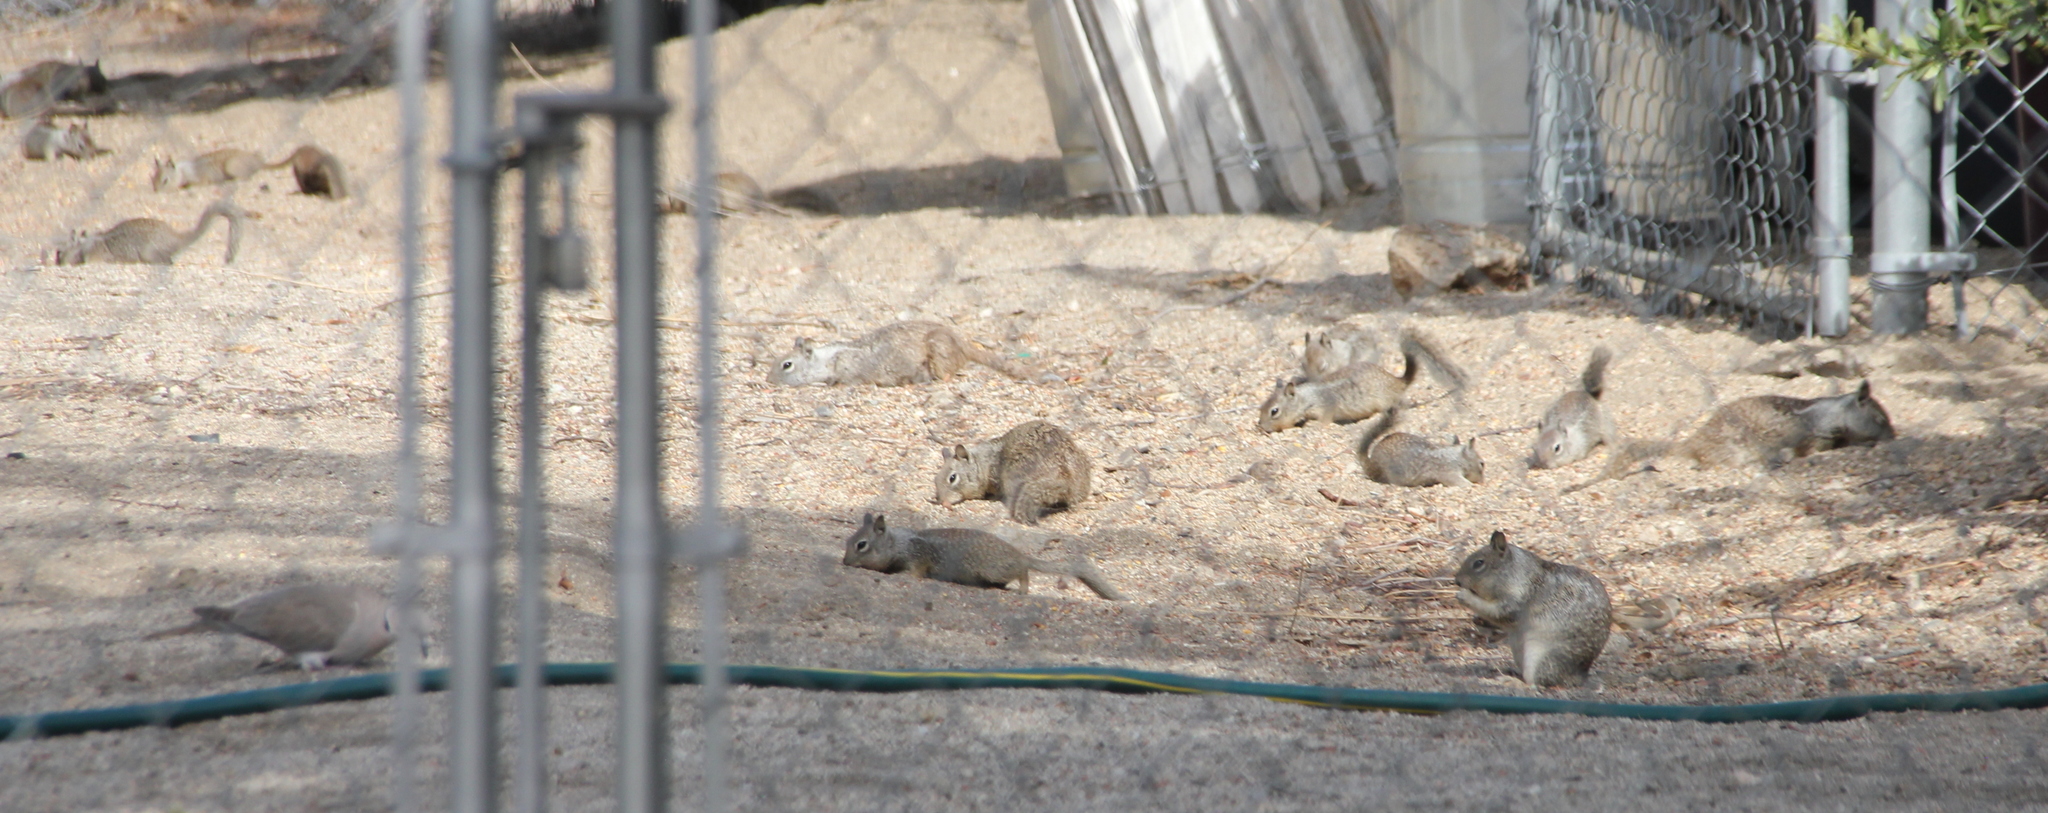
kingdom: Animalia
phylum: Chordata
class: Mammalia
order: Rodentia
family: Sciuridae
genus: Otospermophilus
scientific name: Otospermophilus beecheyi
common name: California ground squirrel
